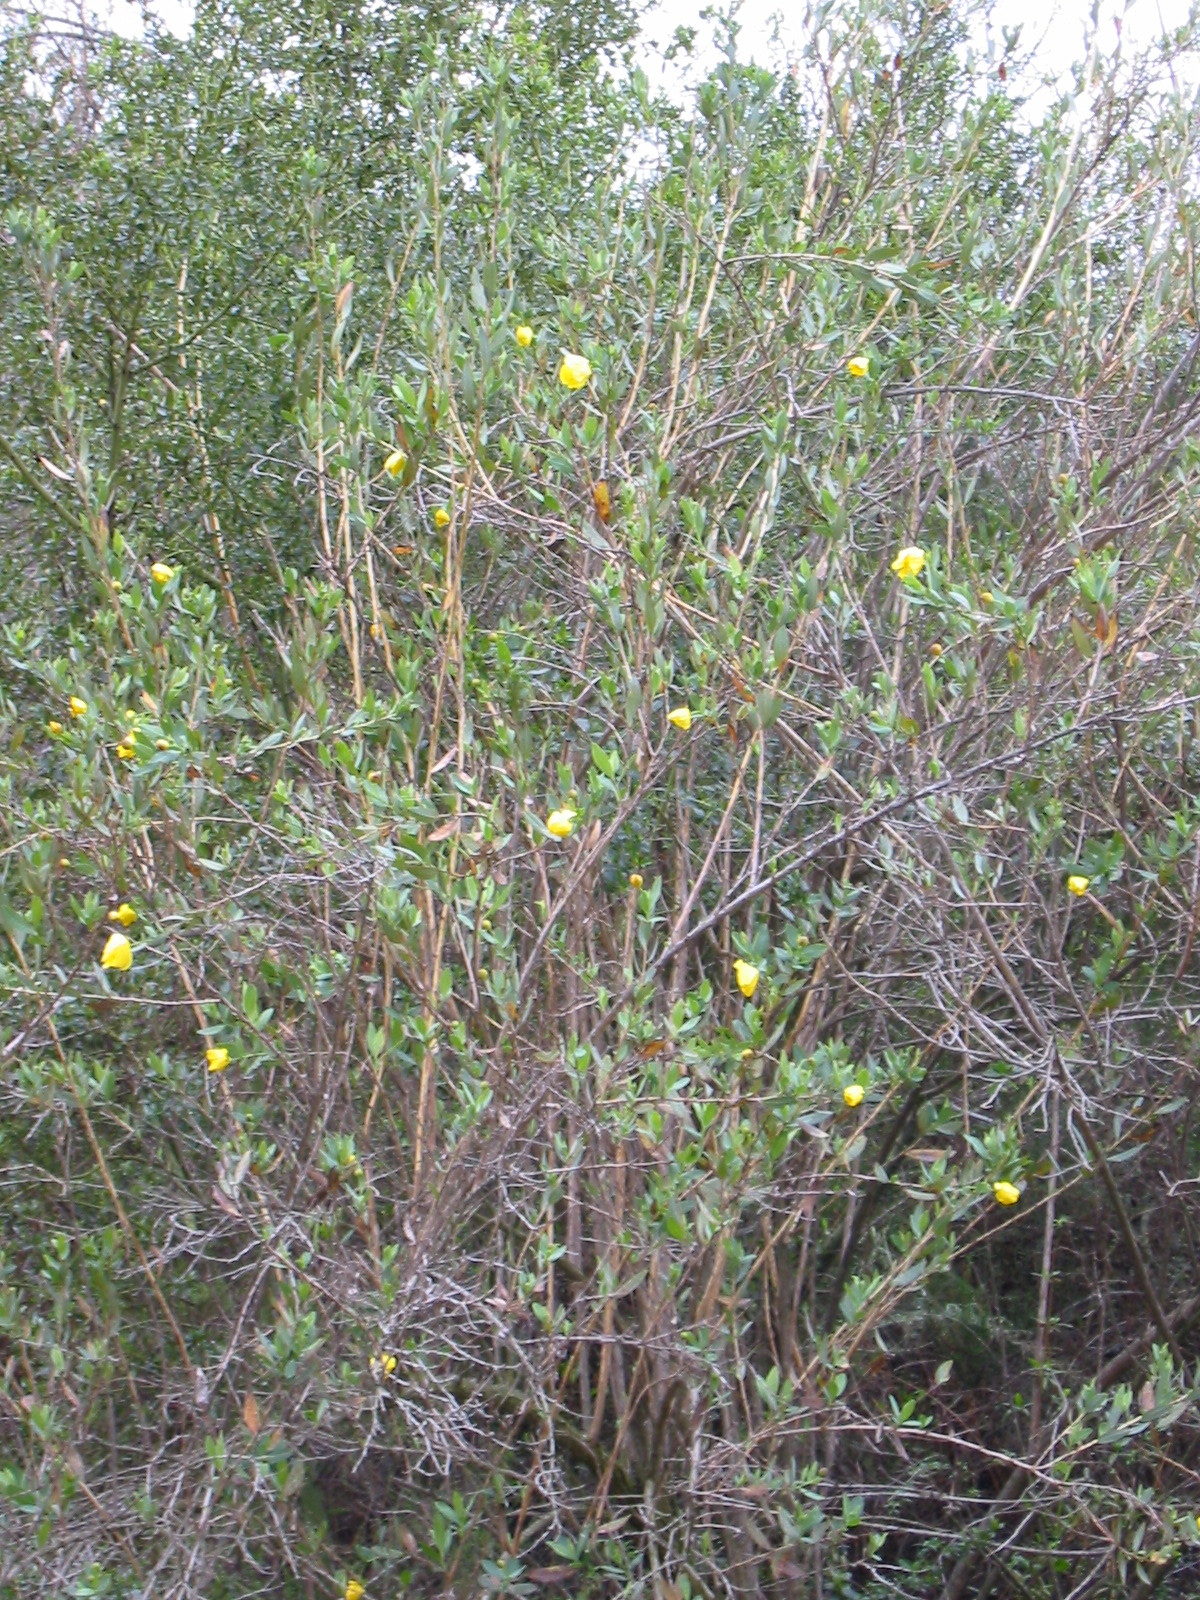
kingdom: Plantae
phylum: Tracheophyta
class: Magnoliopsida
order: Ranunculales
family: Papaveraceae
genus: Dendromecon
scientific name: Dendromecon rigida
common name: Tree poppy
